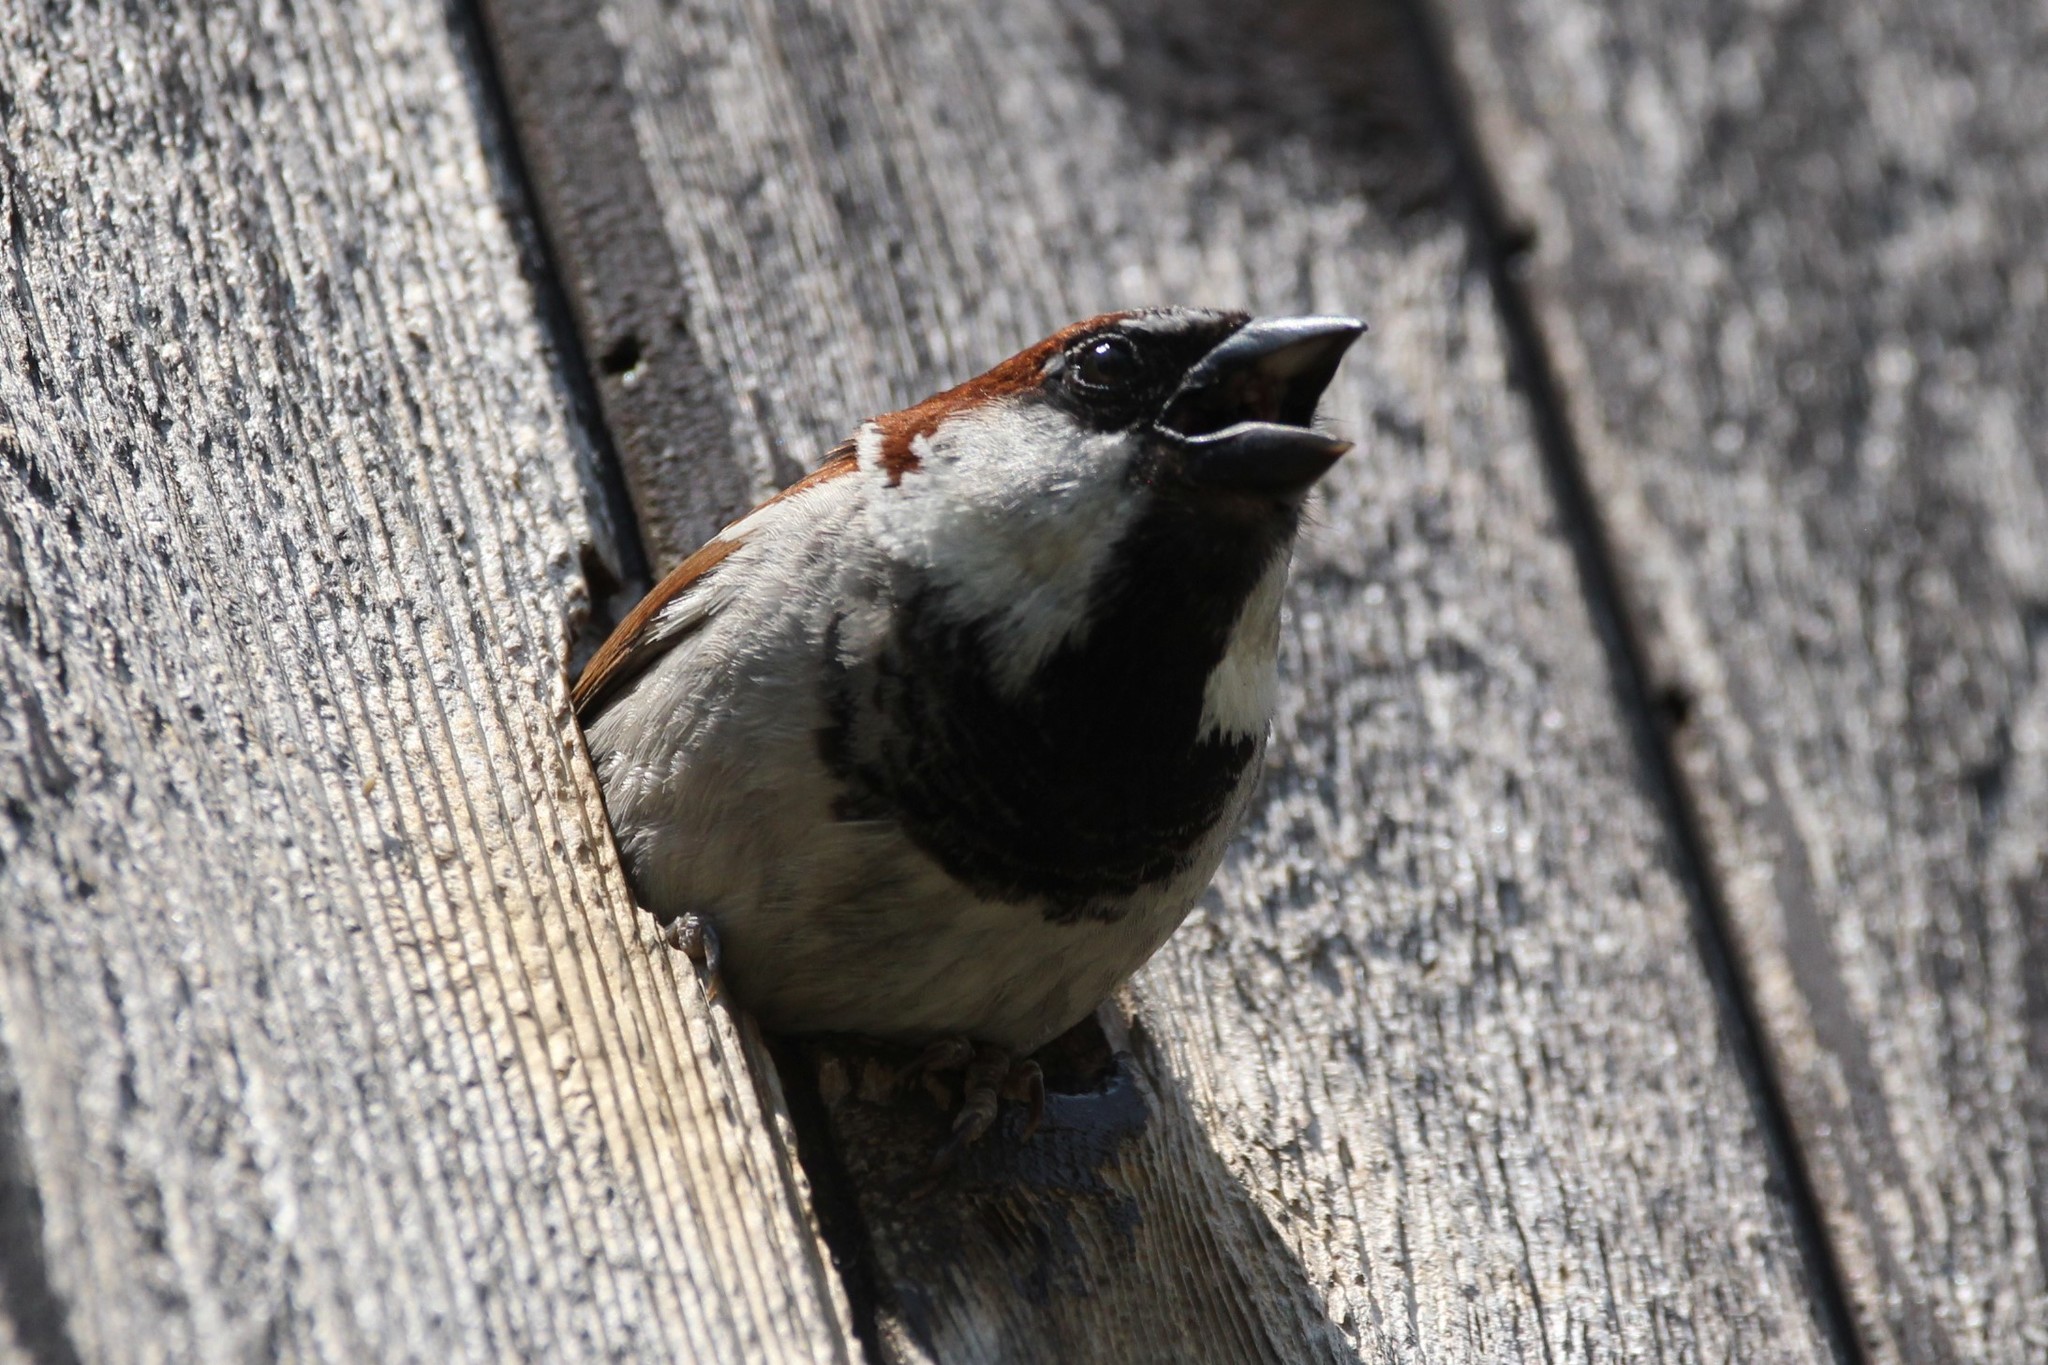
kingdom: Animalia
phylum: Chordata
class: Aves
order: Passeriformes
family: Passeridae
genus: Passer
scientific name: Passer domesticus
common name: House sparrow
